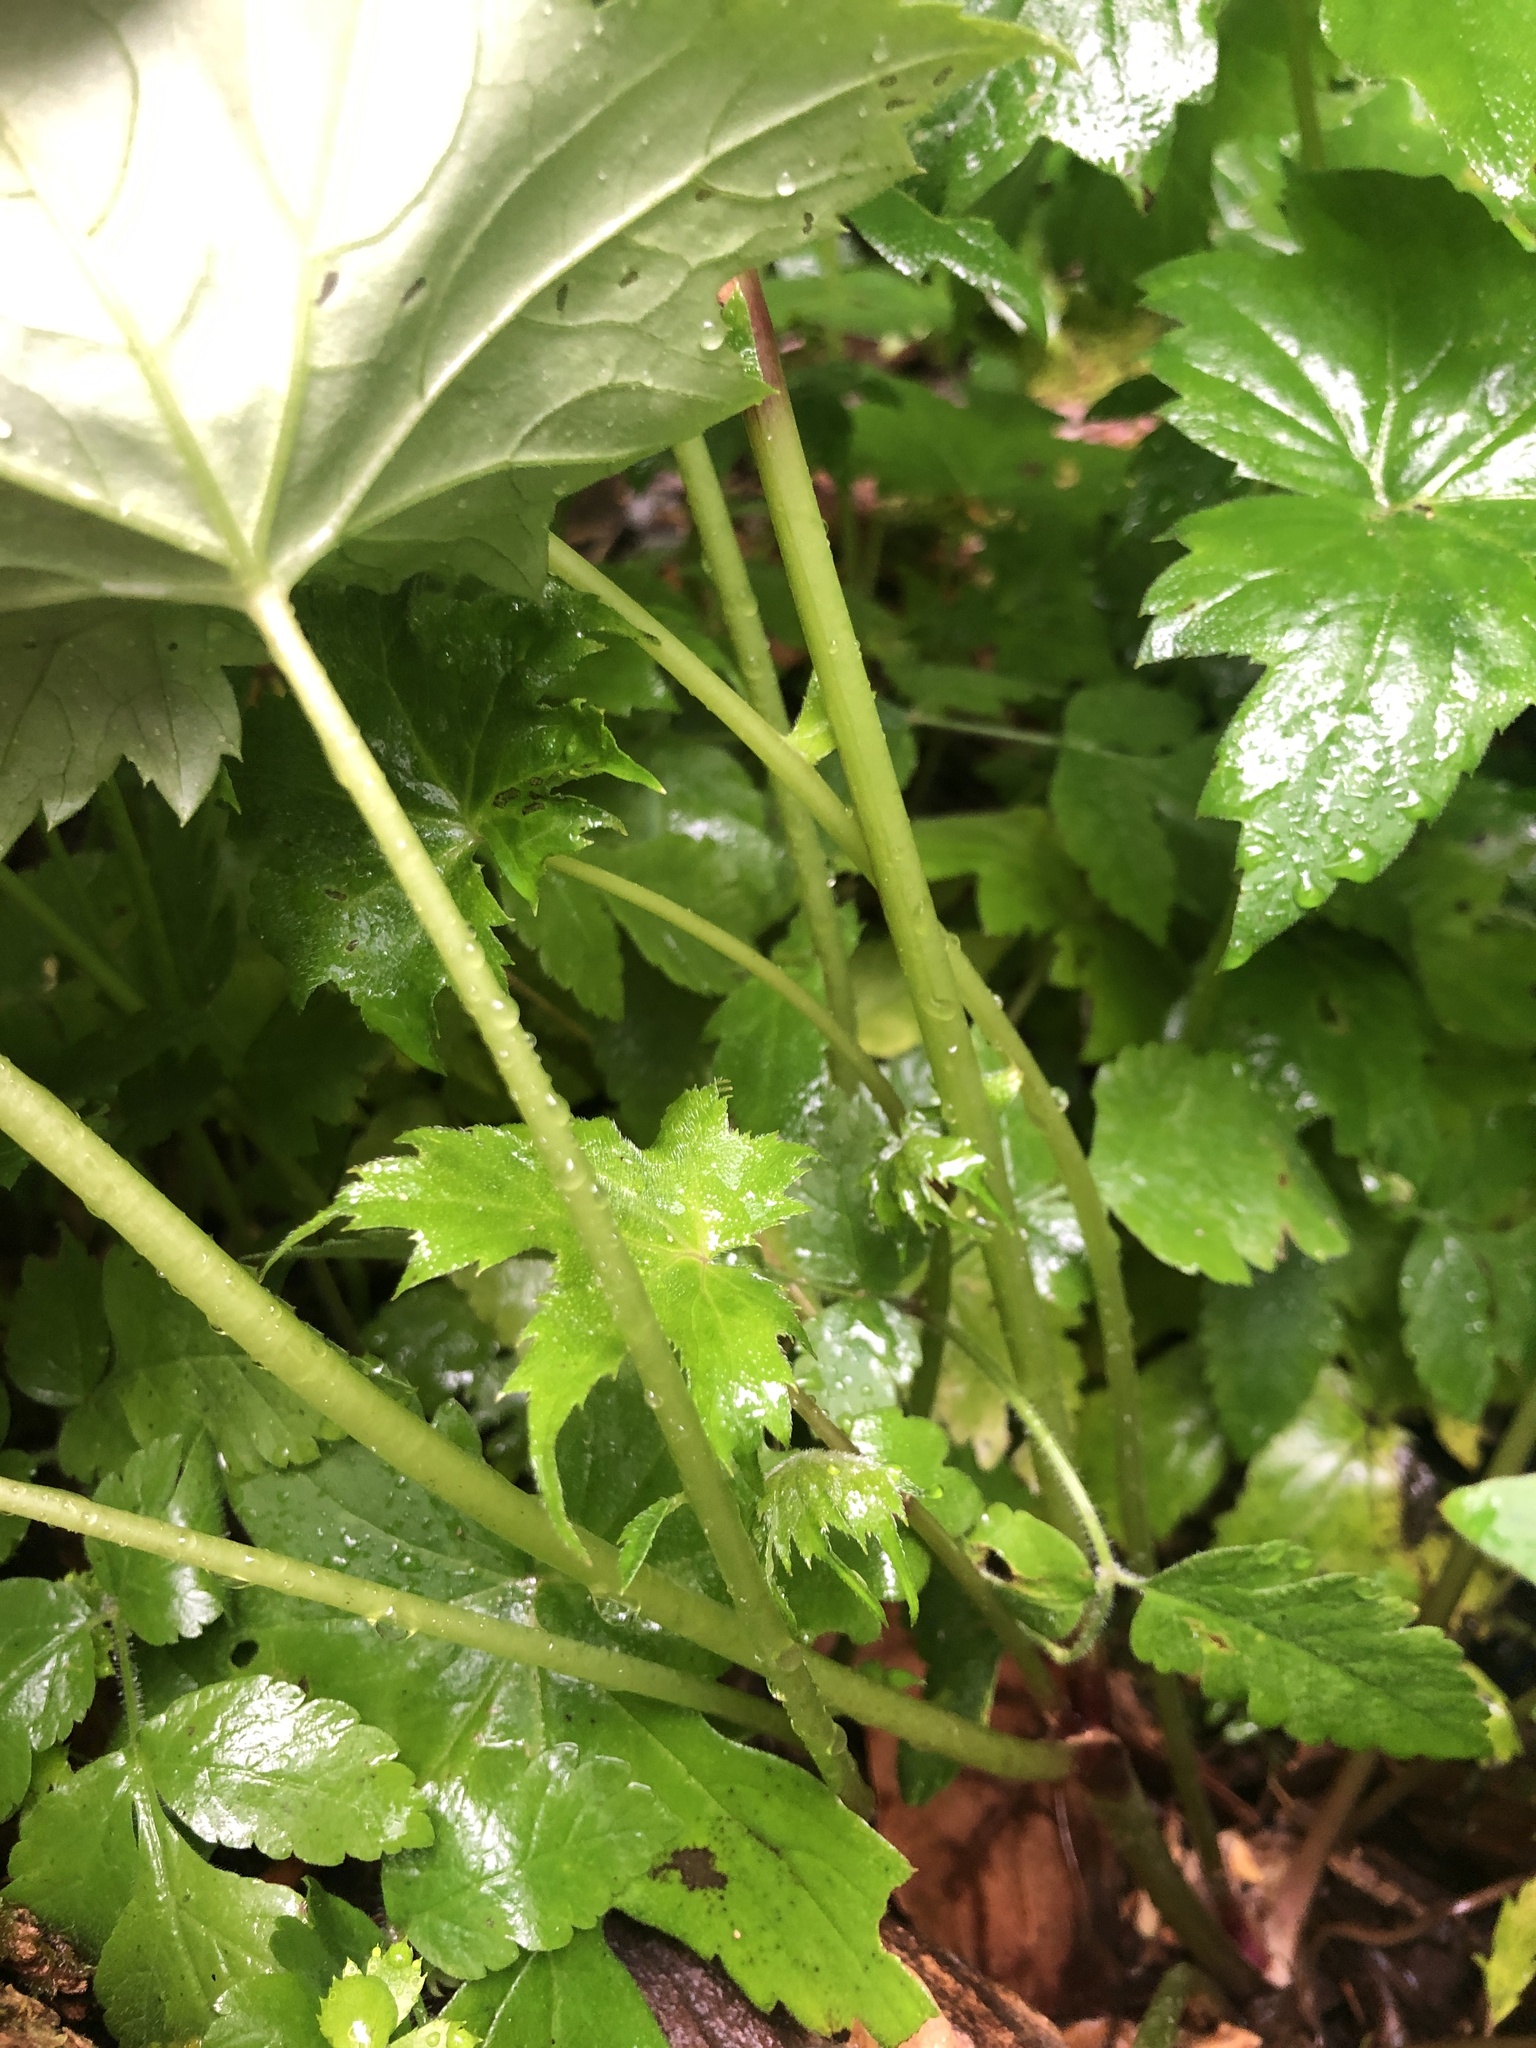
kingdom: Plantae
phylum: Tracheophyta
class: Magnoliopsida
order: Boraginales
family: Hydrophyllaceae
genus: Hydrophyllum
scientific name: Hydrophyllum canadense
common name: Canada waterleaf
